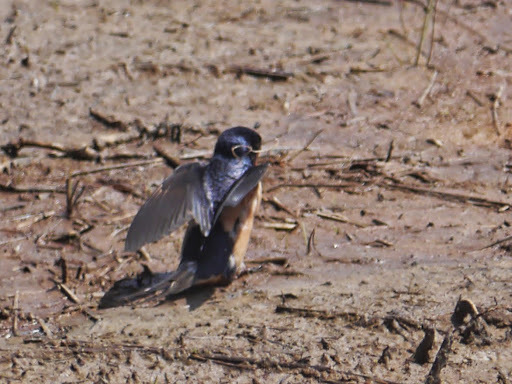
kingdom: Animalia
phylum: Chordata
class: Aves
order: Passeriformes
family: Hirundinidae
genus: Hirundo
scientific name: Hirundo rustica
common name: Barn swallow
